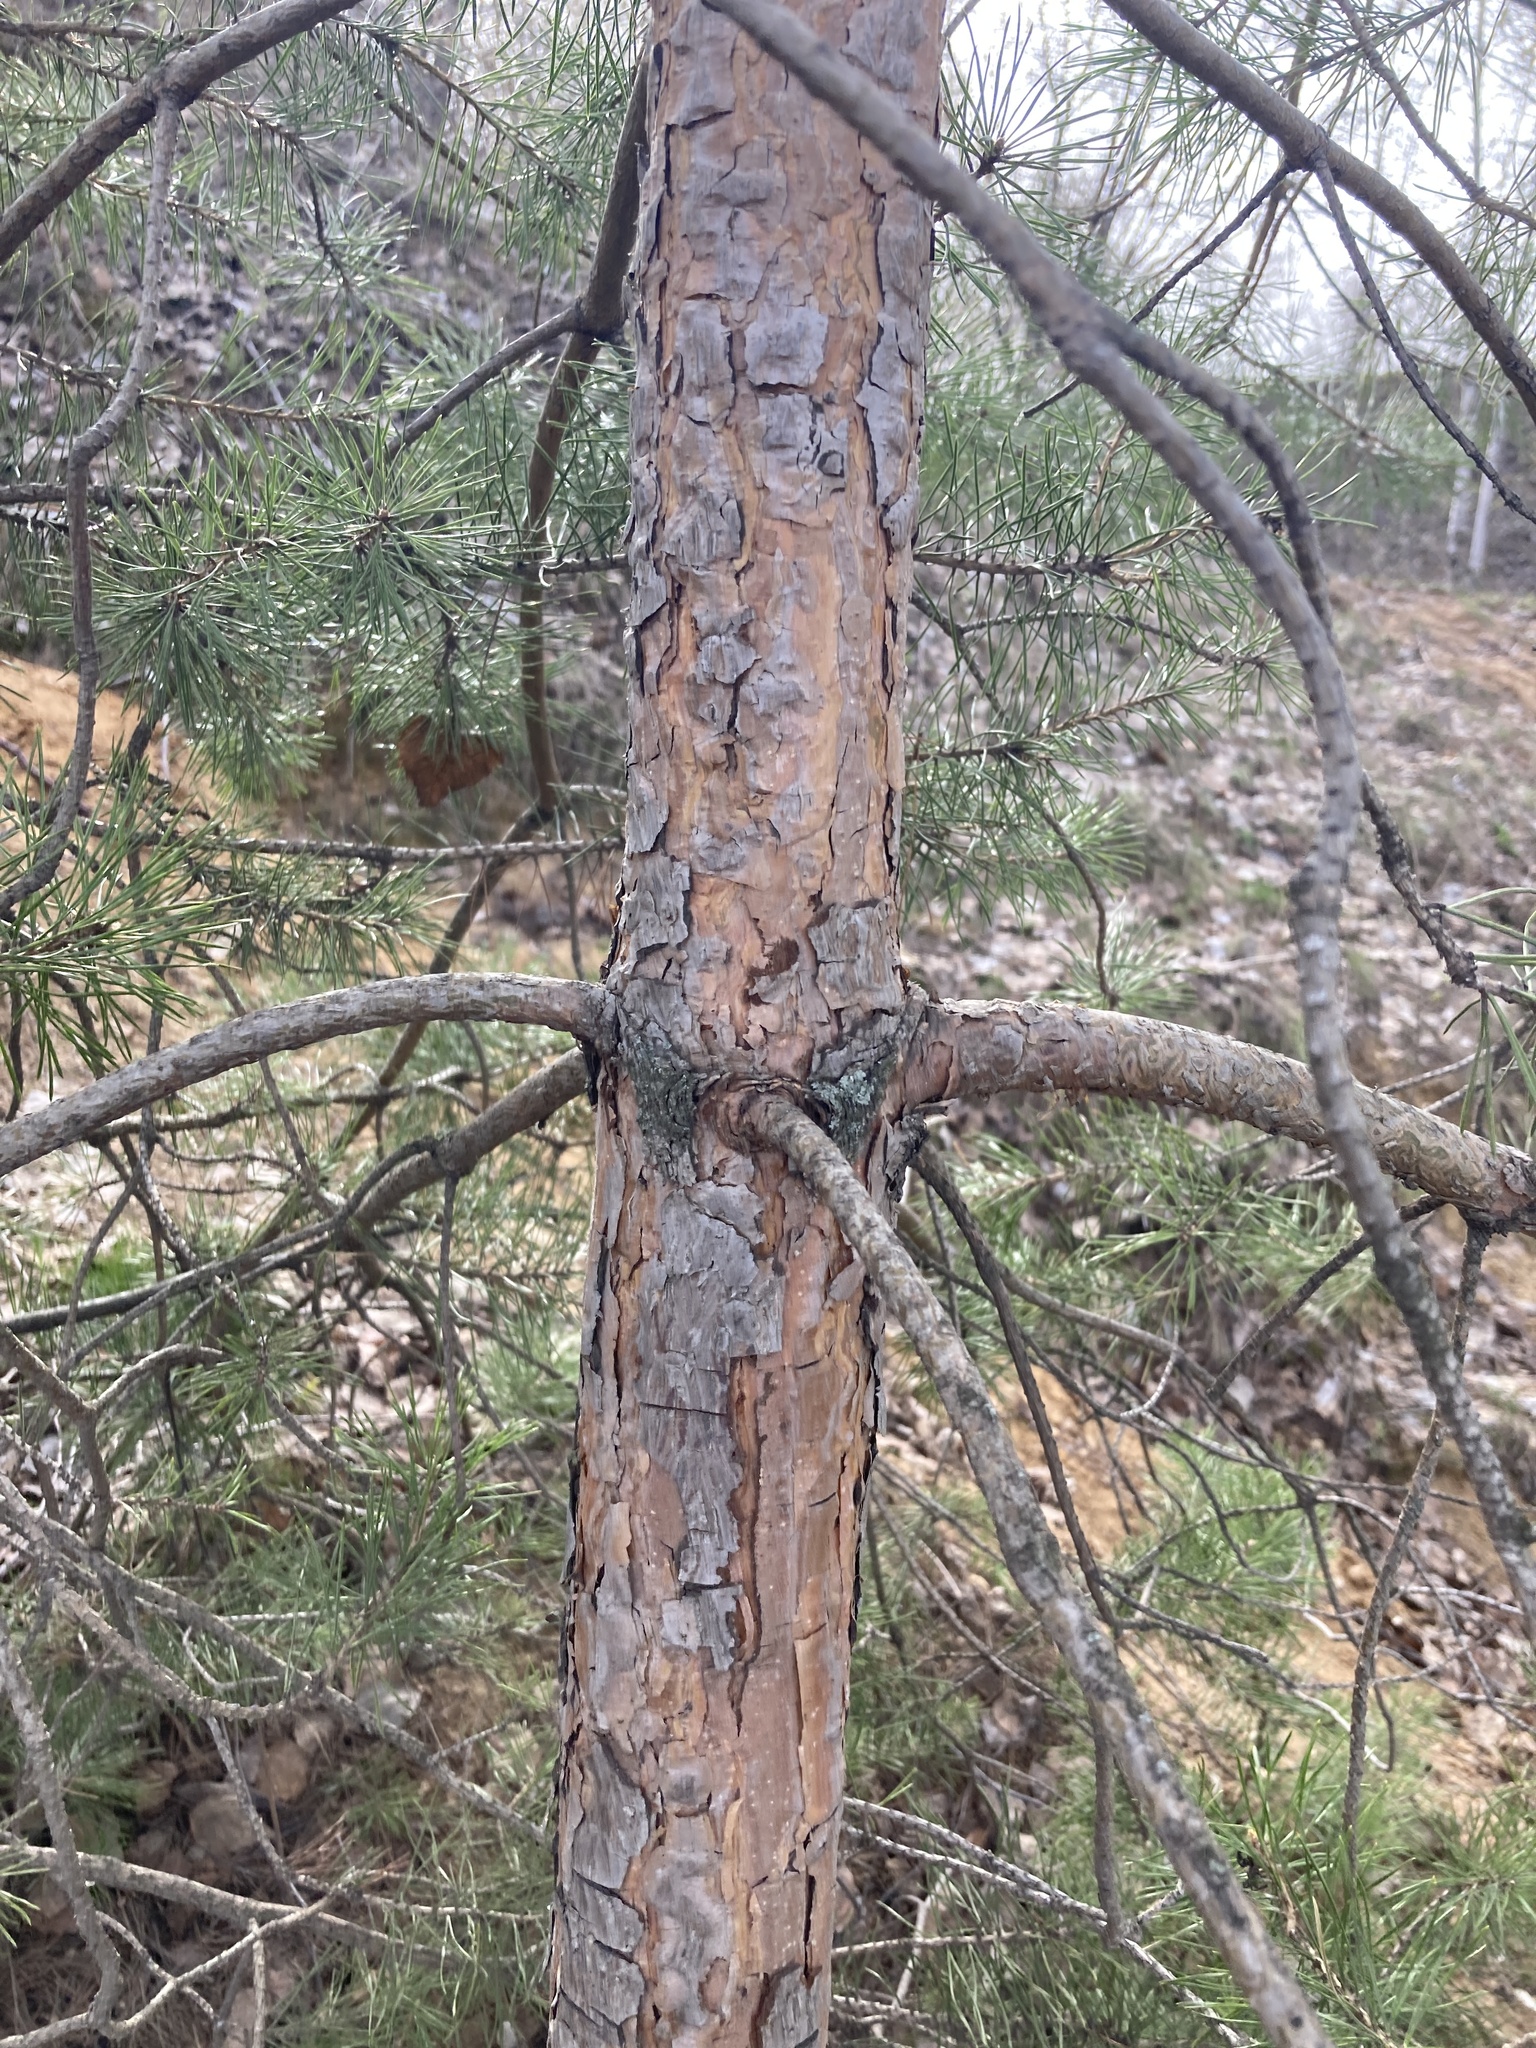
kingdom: Plantae
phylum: Tracheophyta
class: Pinopsida
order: Pinales
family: Pinaceae
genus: Pinus
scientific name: Pinus sylvestris
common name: Scots pine
